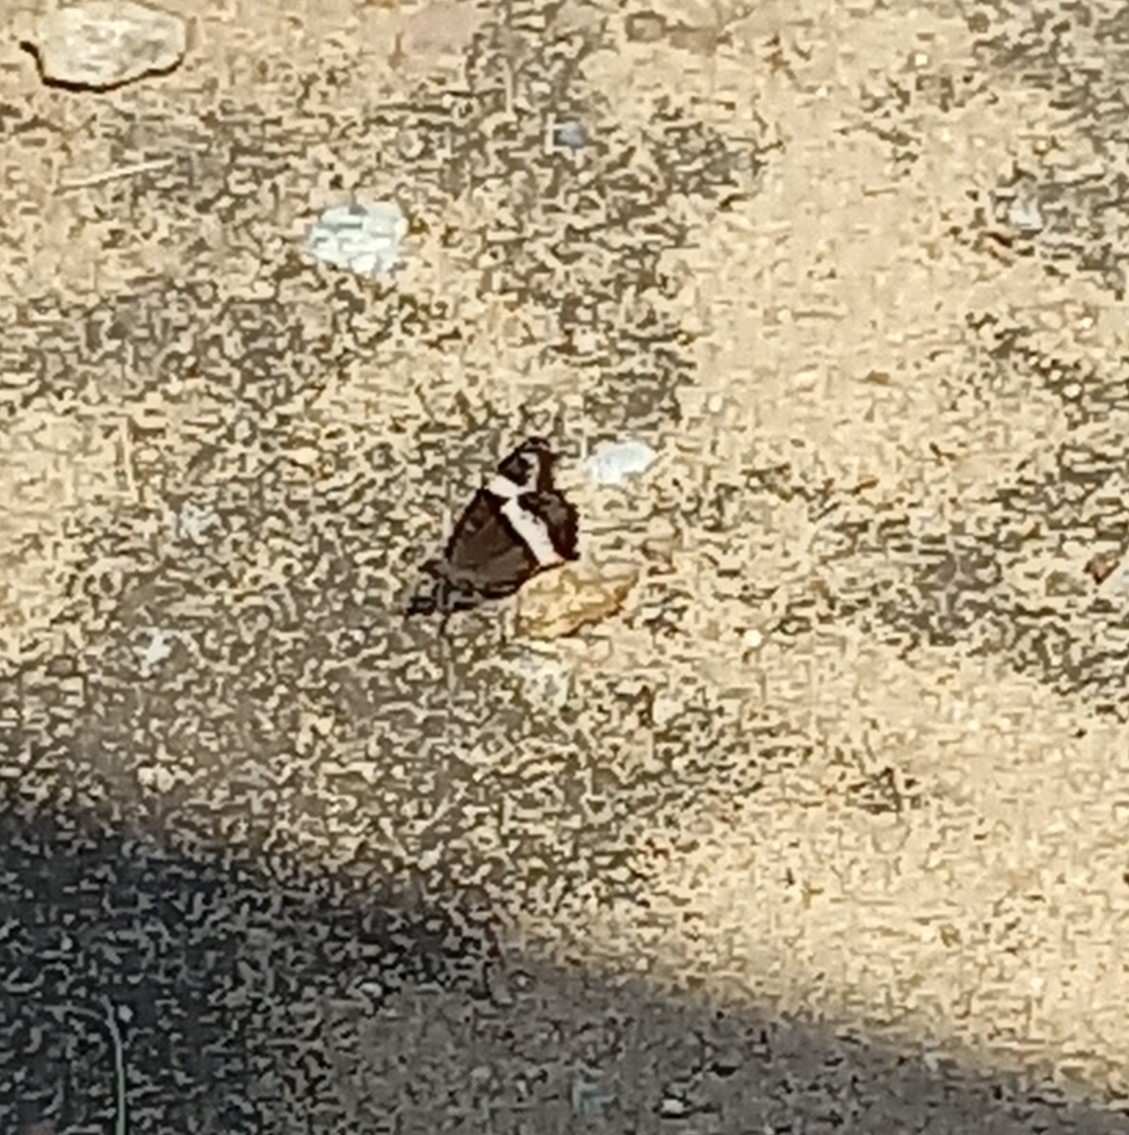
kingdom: Animalia
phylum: Arthropoda
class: Insecta
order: Lepidoptera
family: Nymphalidae
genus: Junonia
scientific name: Junonia archesia
